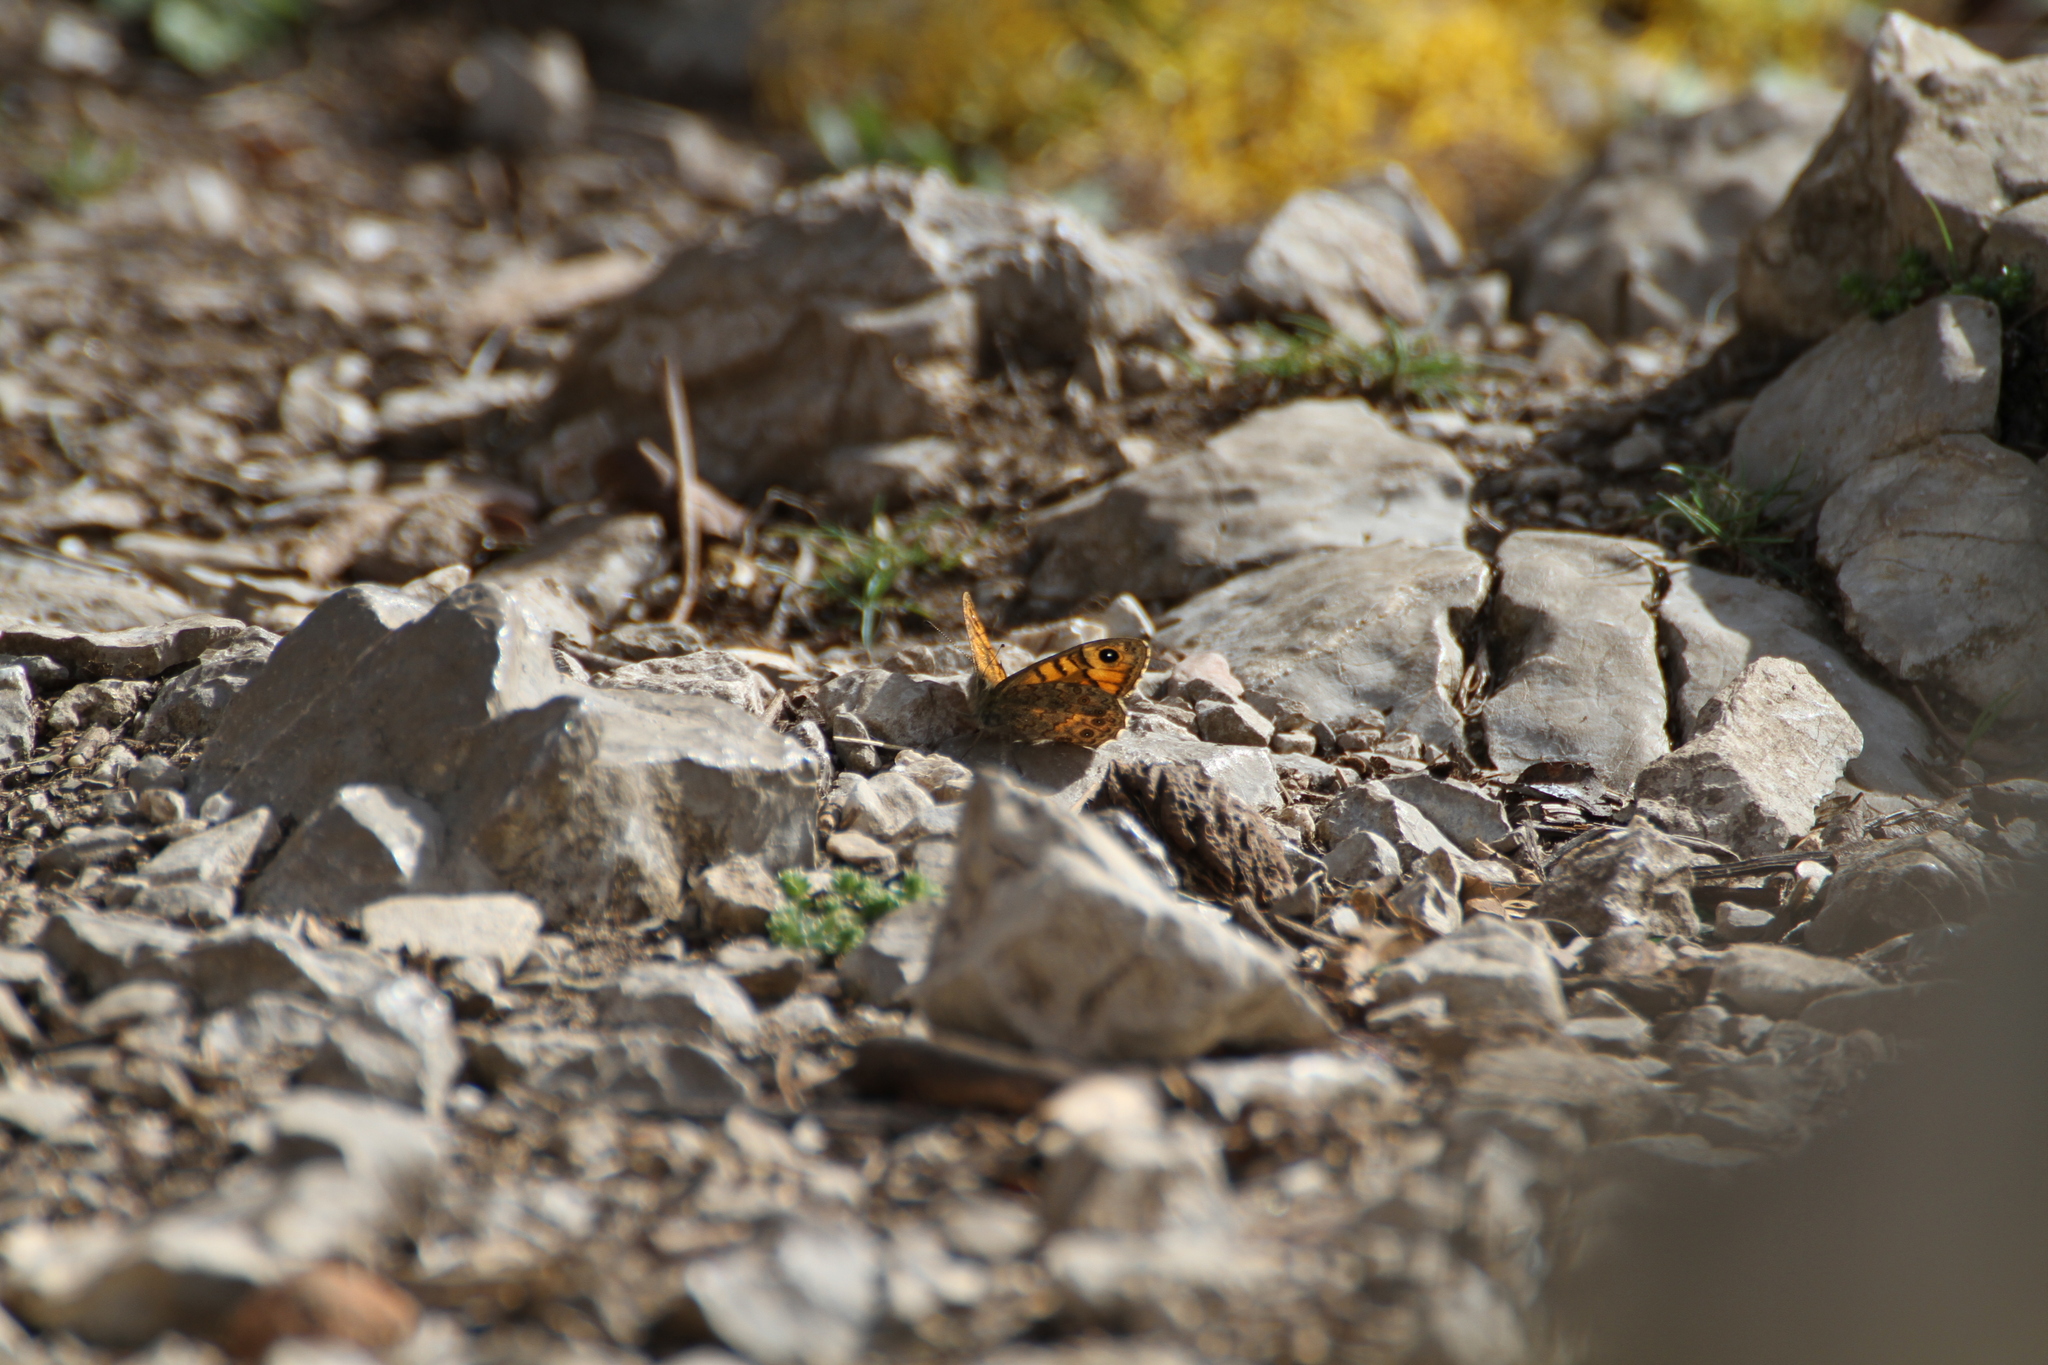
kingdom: Animalia
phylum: Arthropoda
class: Insecta
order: Lepidoptera
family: Nymphalidae
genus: Pararge
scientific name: Pararge Lasiommata megera
